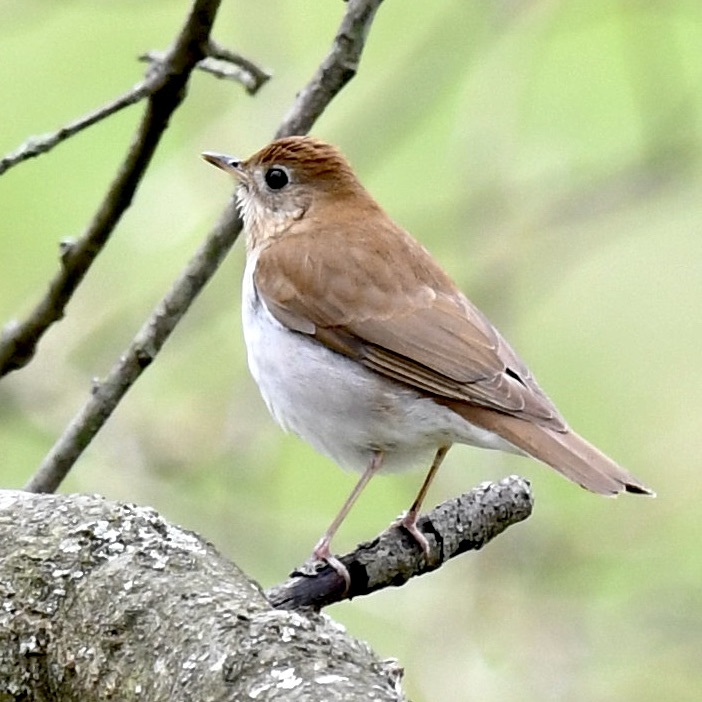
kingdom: Animalia
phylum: Chordata
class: Aves
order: Passeriformes
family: Turdidae
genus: Catharus
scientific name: Catharus fuscescens
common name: Veery
